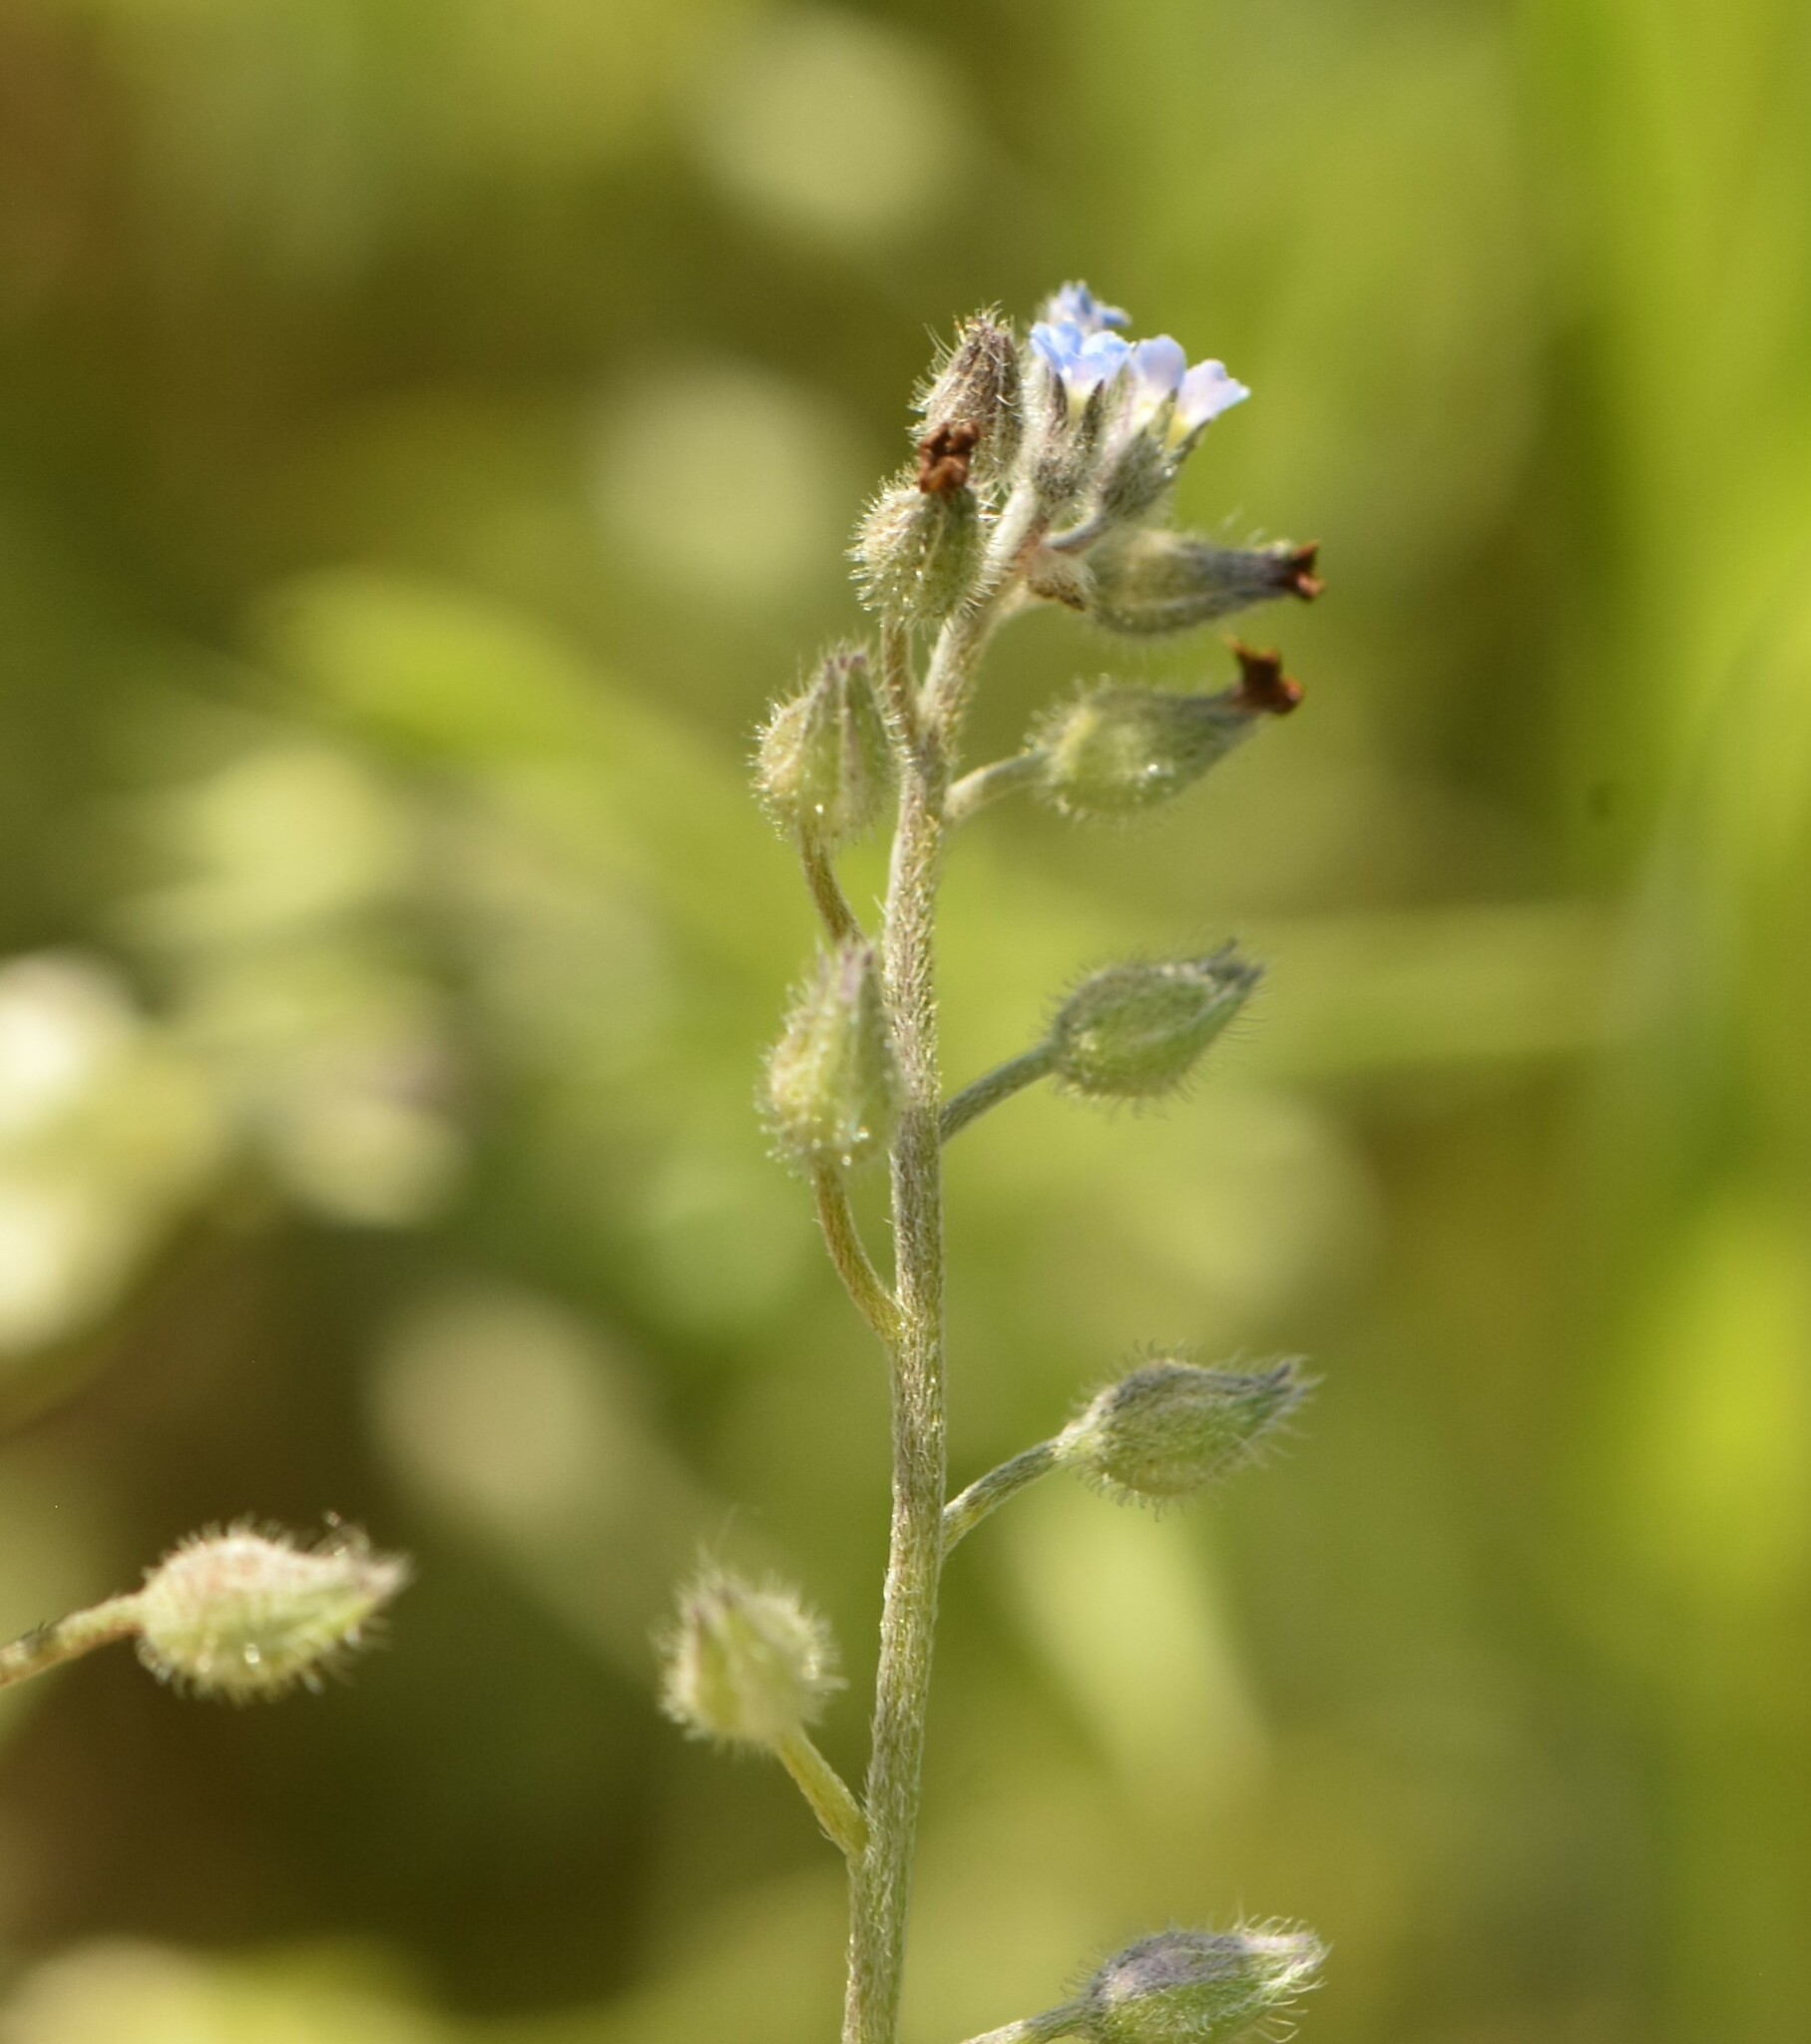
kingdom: Plantae
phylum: Tracheophyta
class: Magnoliopsida
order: Boraginales
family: Boraginaceae
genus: Myosotis
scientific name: Myosotis arvensis
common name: Field forget-me-not
